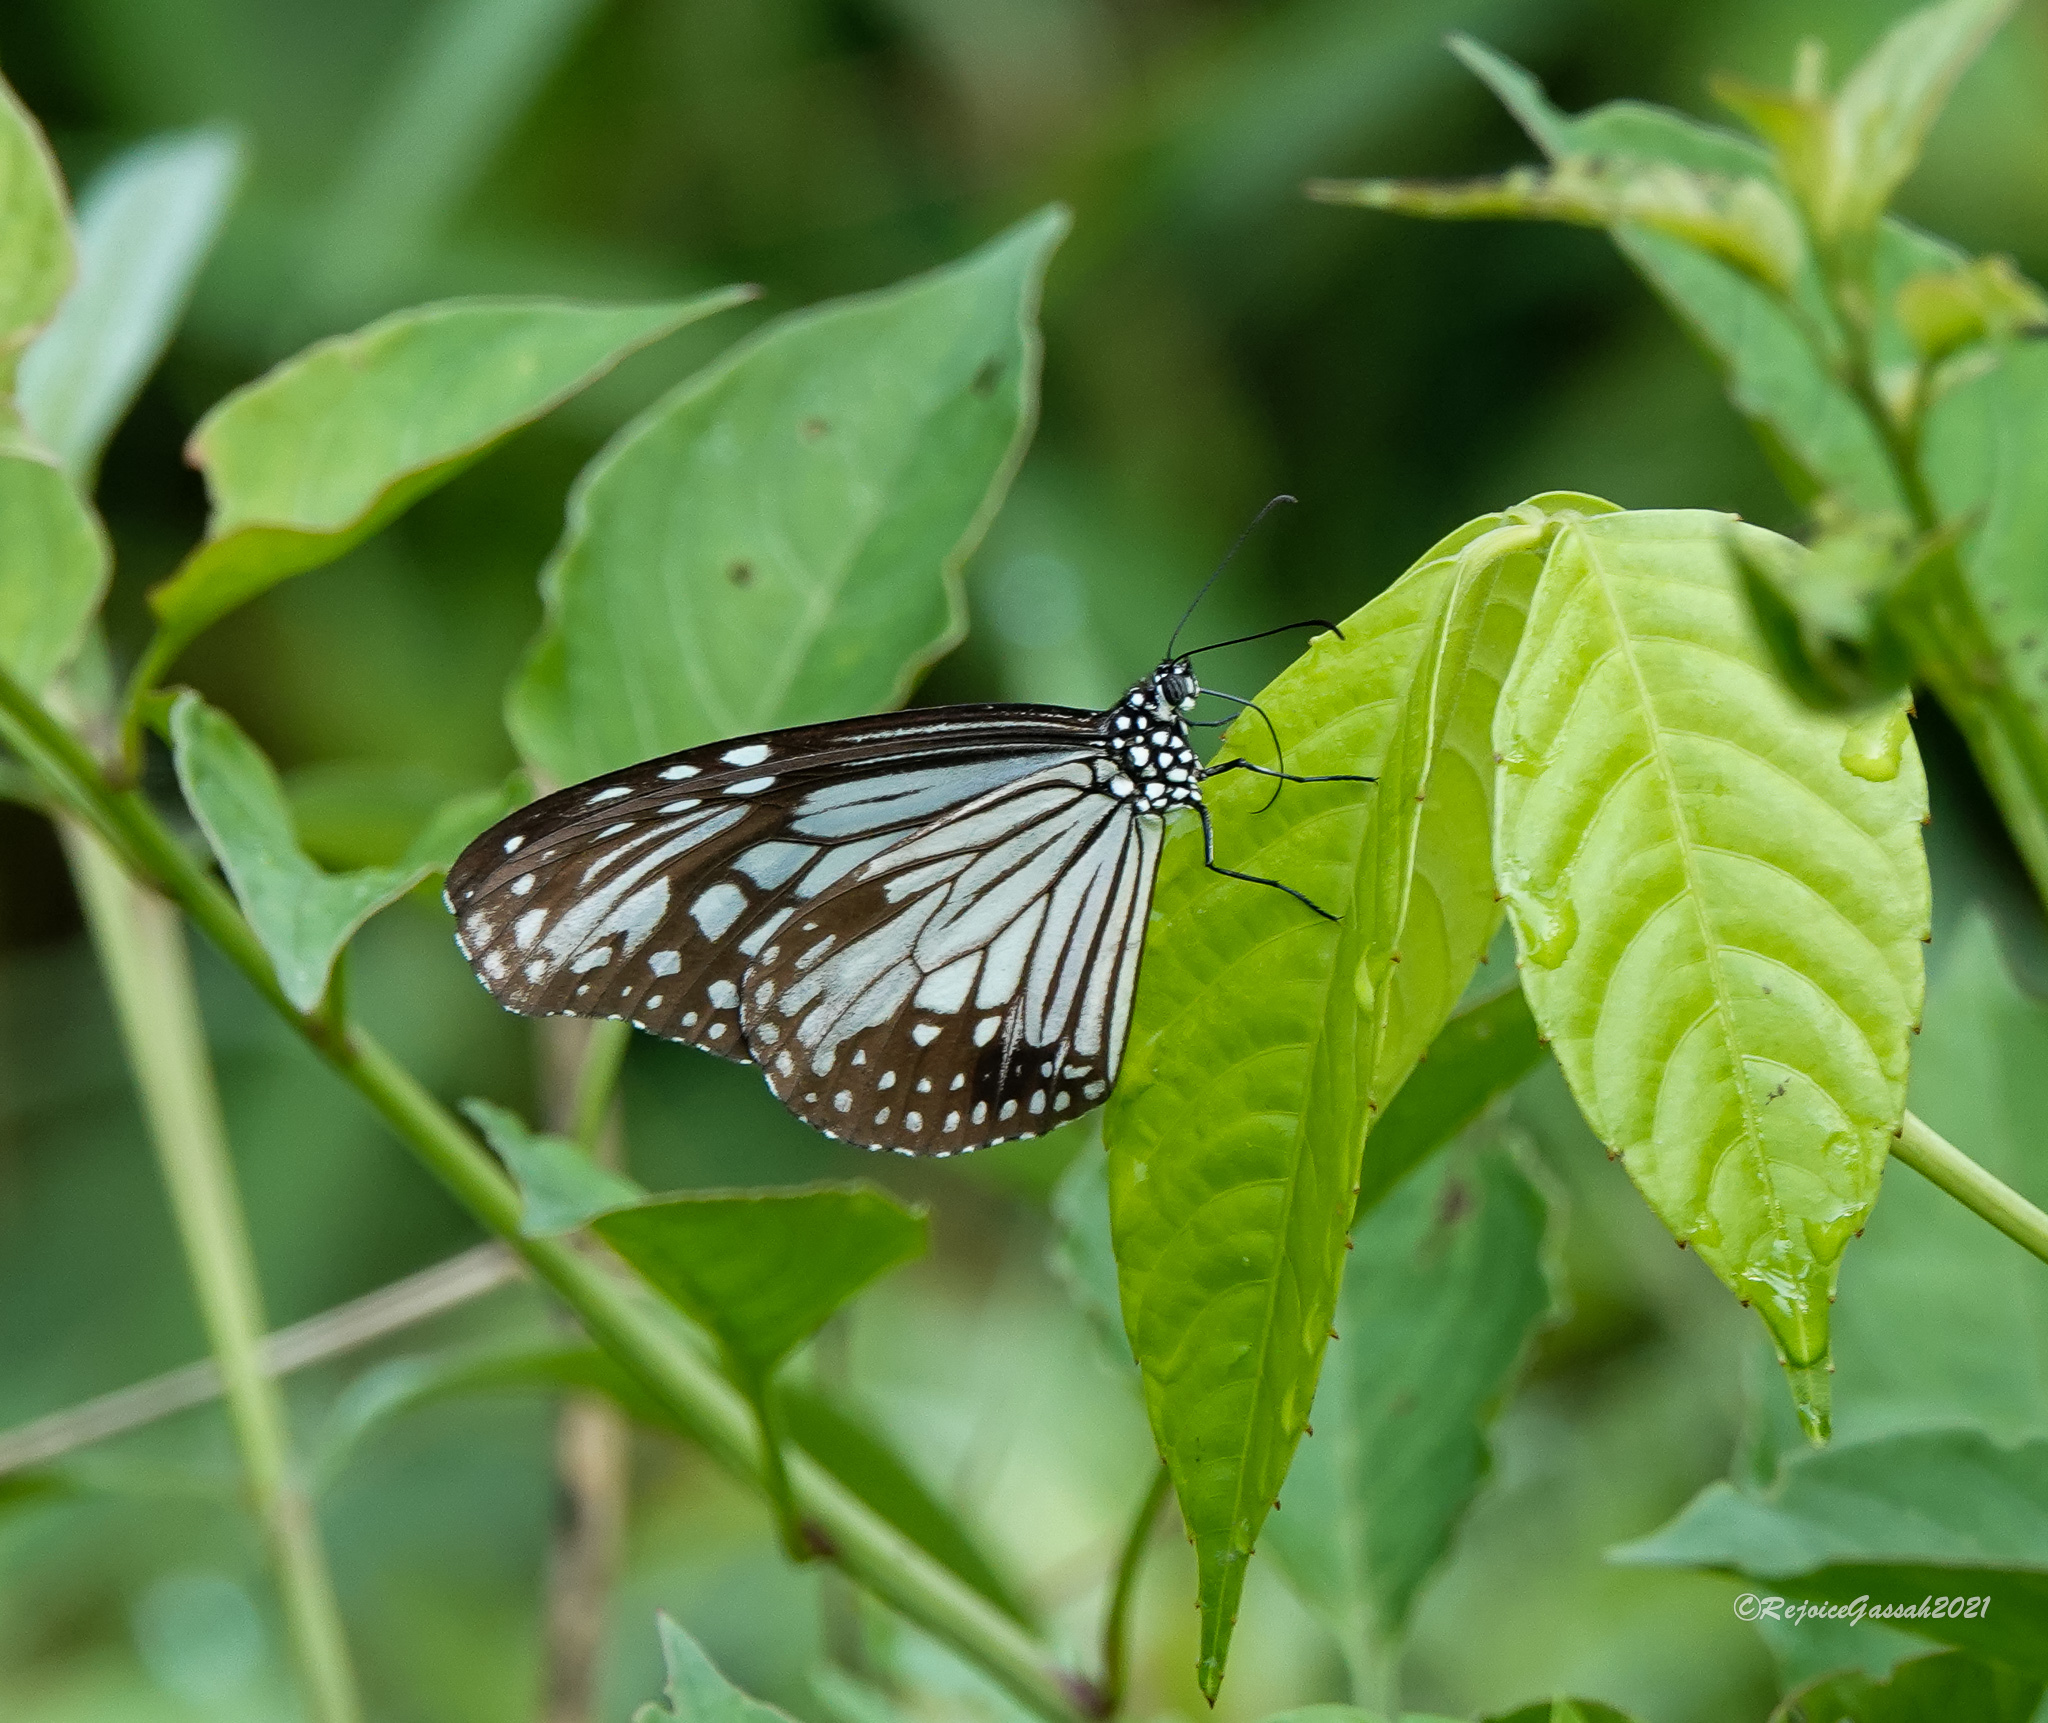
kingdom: Animalia
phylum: Arthropoda
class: Insecta
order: Lepidoptera
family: Nymphalidae
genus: Parantica
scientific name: Parantica aglea
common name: Glassy tiger
